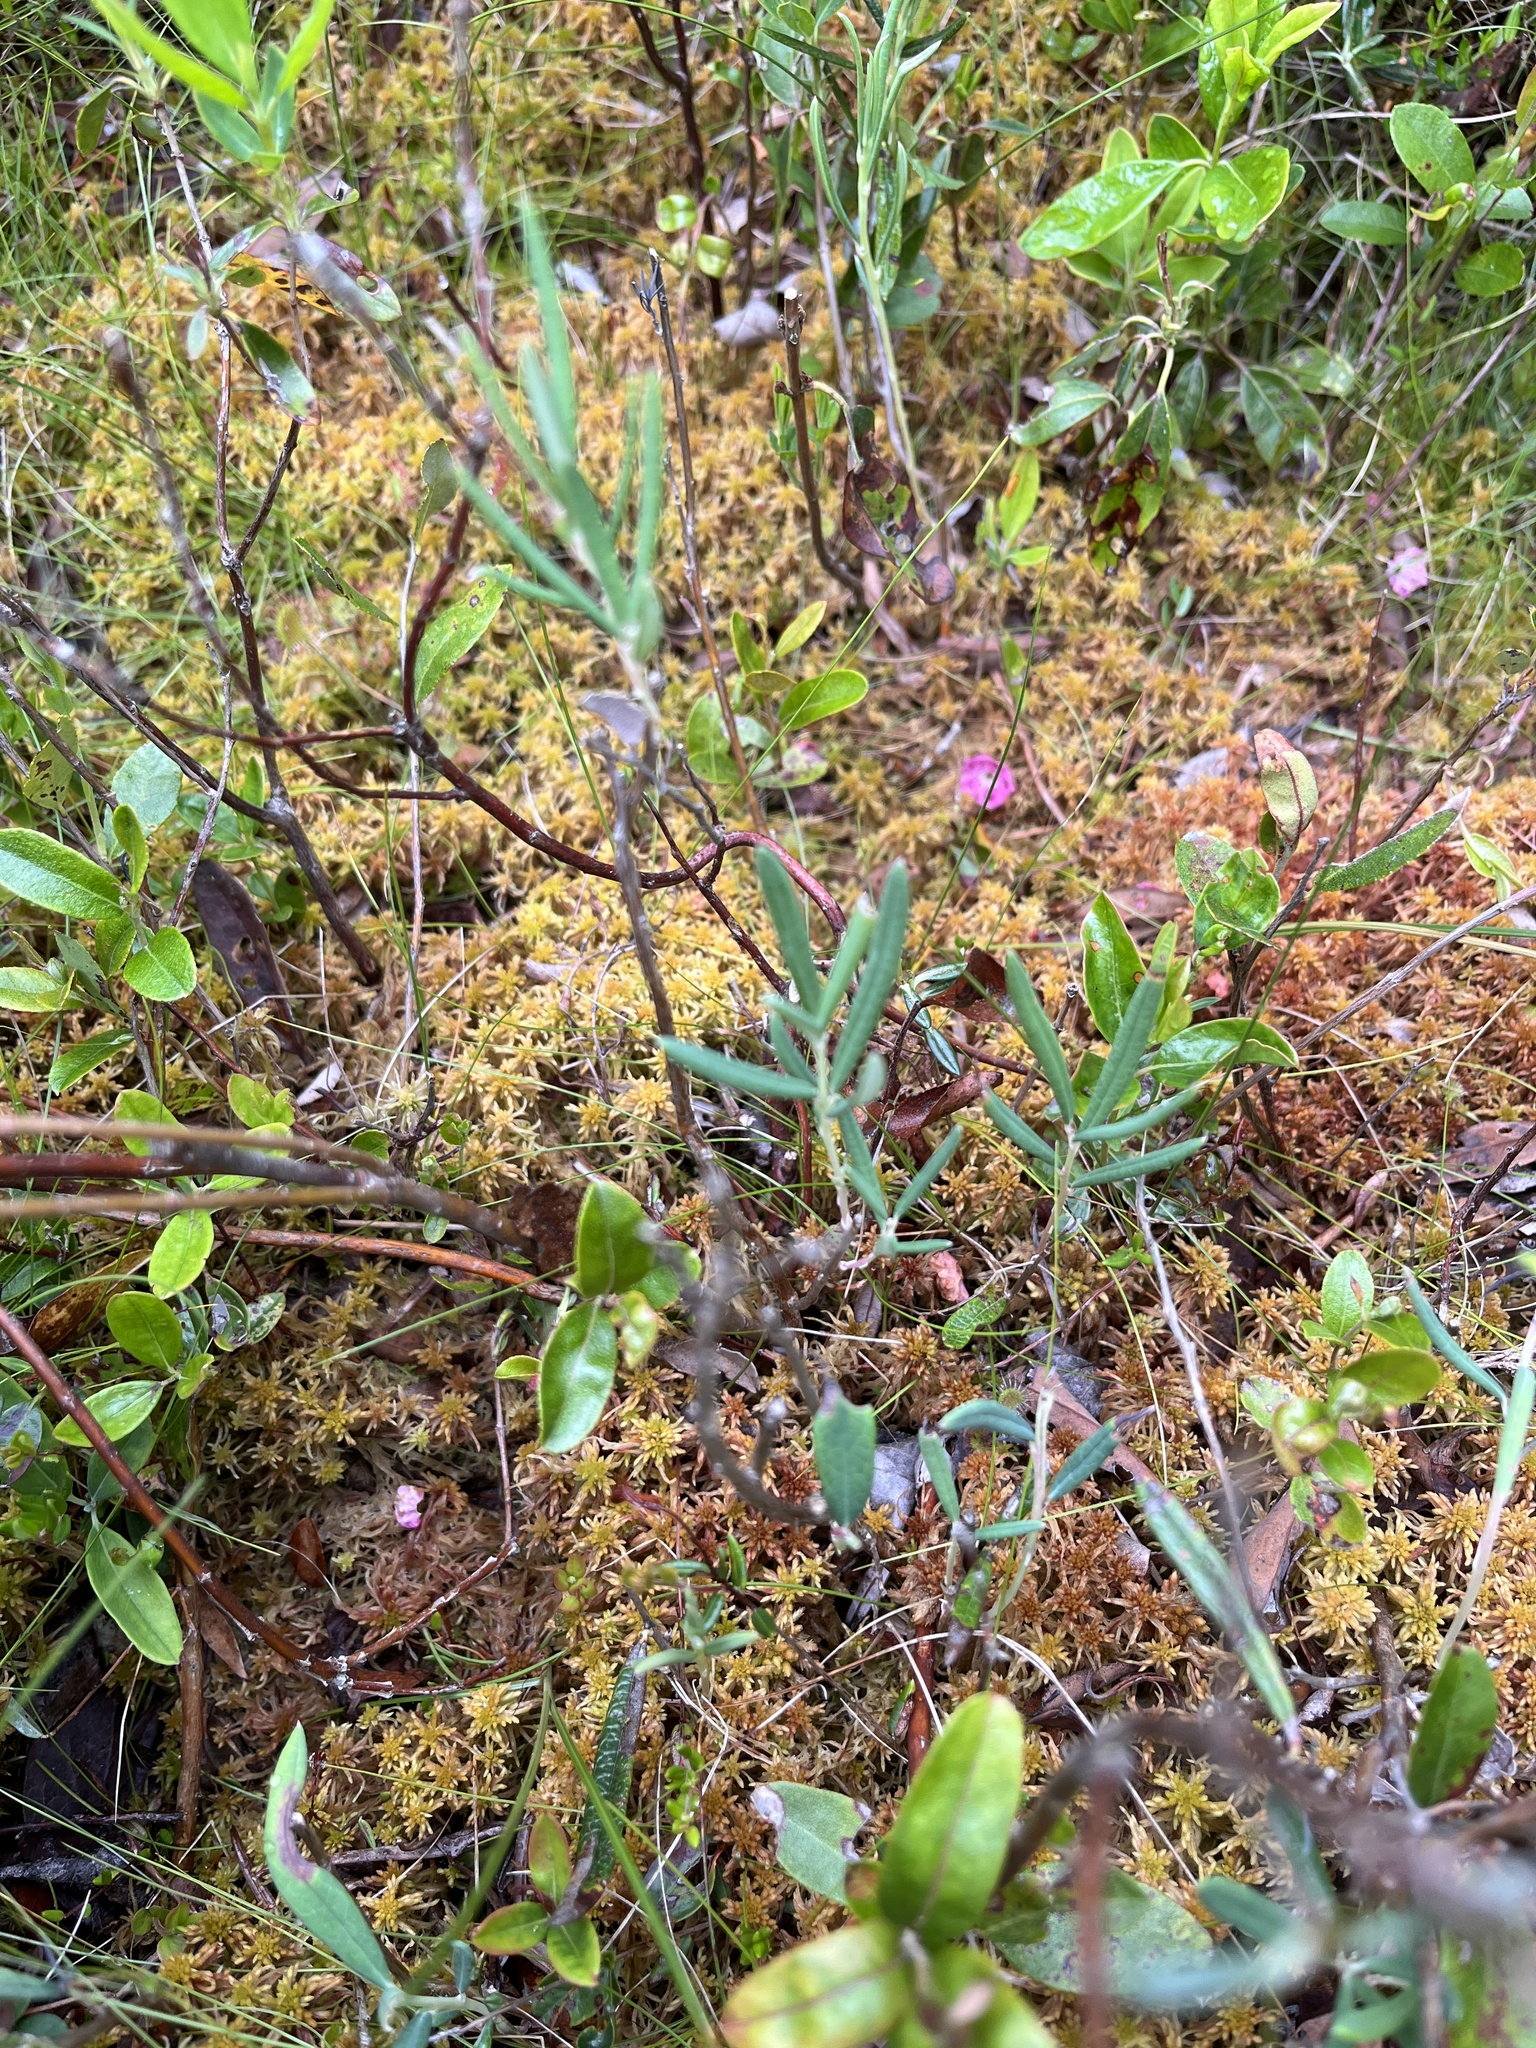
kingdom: Plantae
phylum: Tracheophyta
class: Magnoliopsida
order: Ericales
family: Ericaceae
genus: Andromeda
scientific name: Andromeda polifolia
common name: Bog-rosemary
